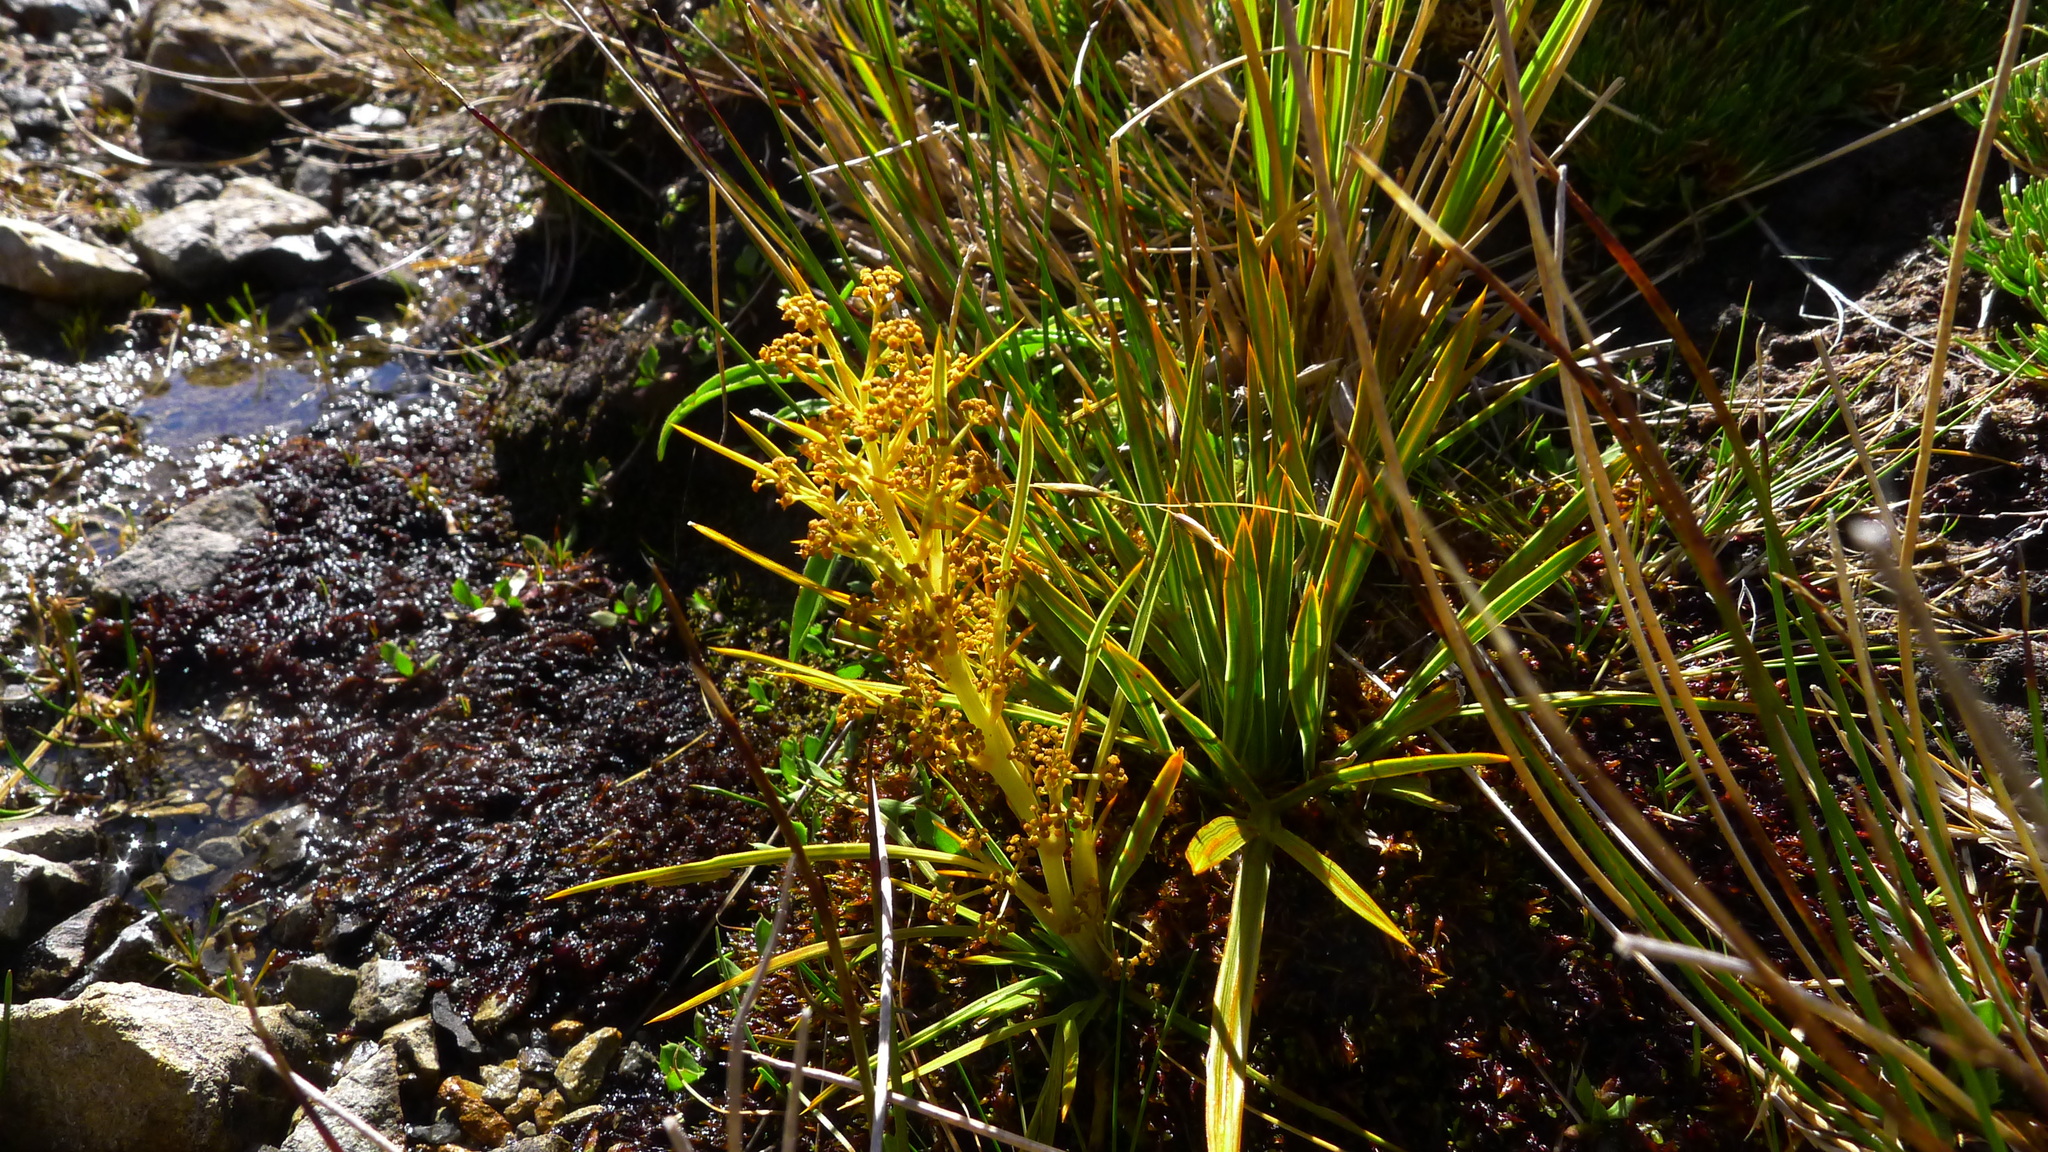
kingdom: Plantae
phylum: Tracheophyta
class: Magnoliopsida
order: Apiales
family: Apiaceae
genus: Aciphylla
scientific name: Aciphylla crenulata
